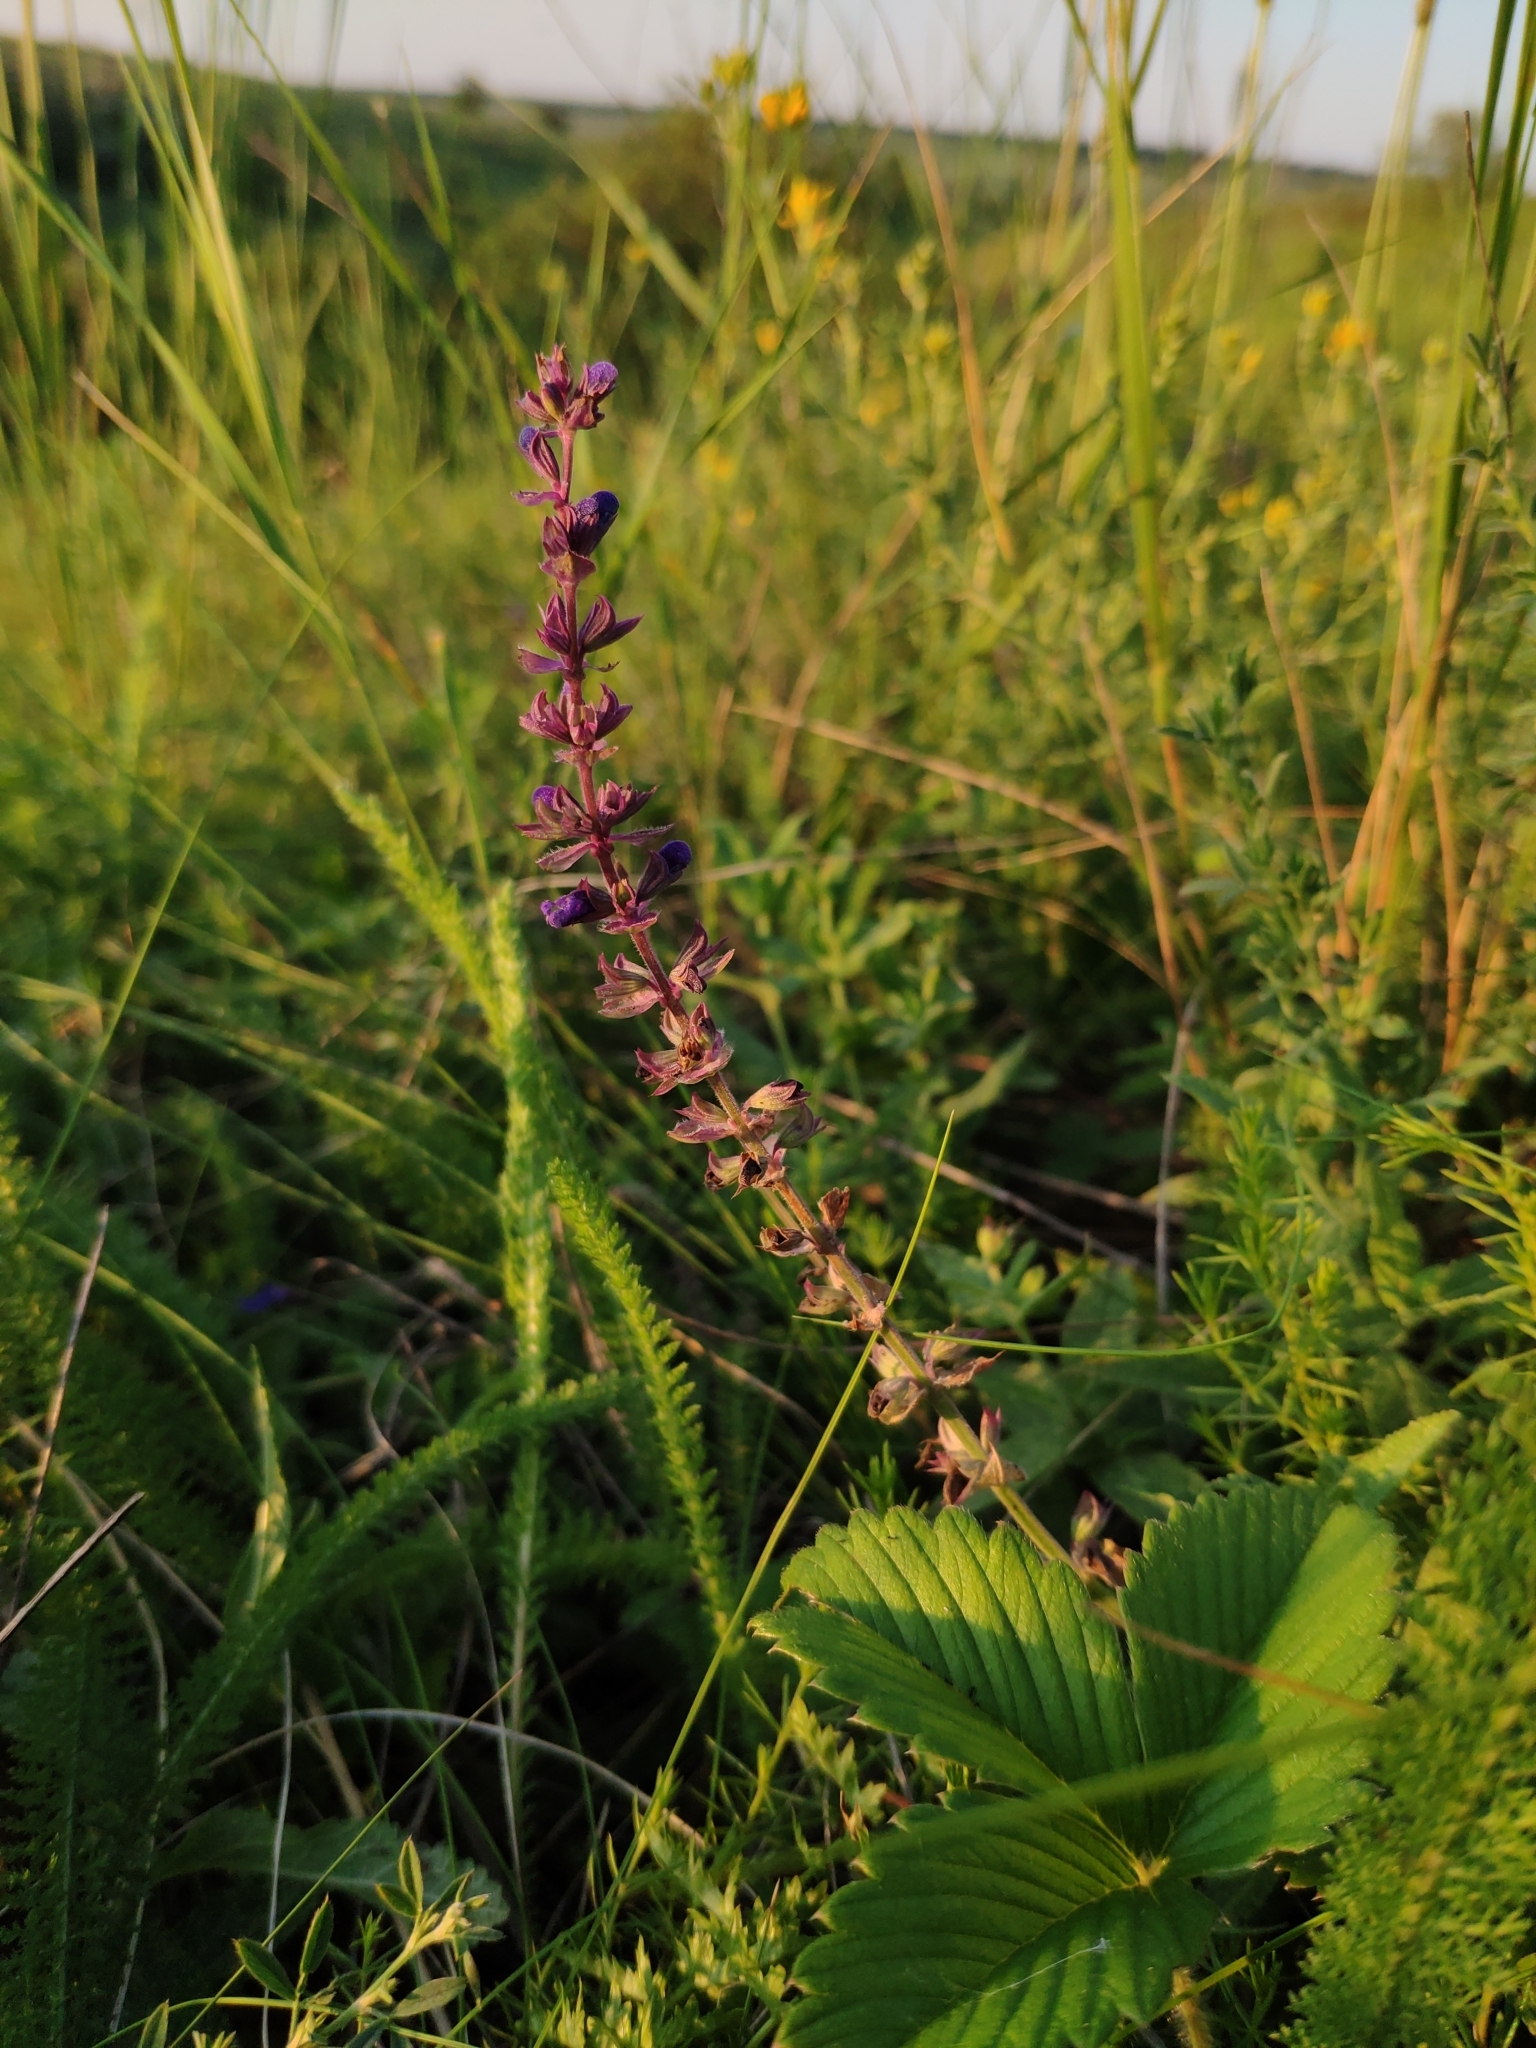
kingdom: Plantae
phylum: Tracheophyta
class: Magnoliopsida
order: Lamiales
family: Lamiaceae
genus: Salvia
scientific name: Salvia nemorosa
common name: Balkan clary
